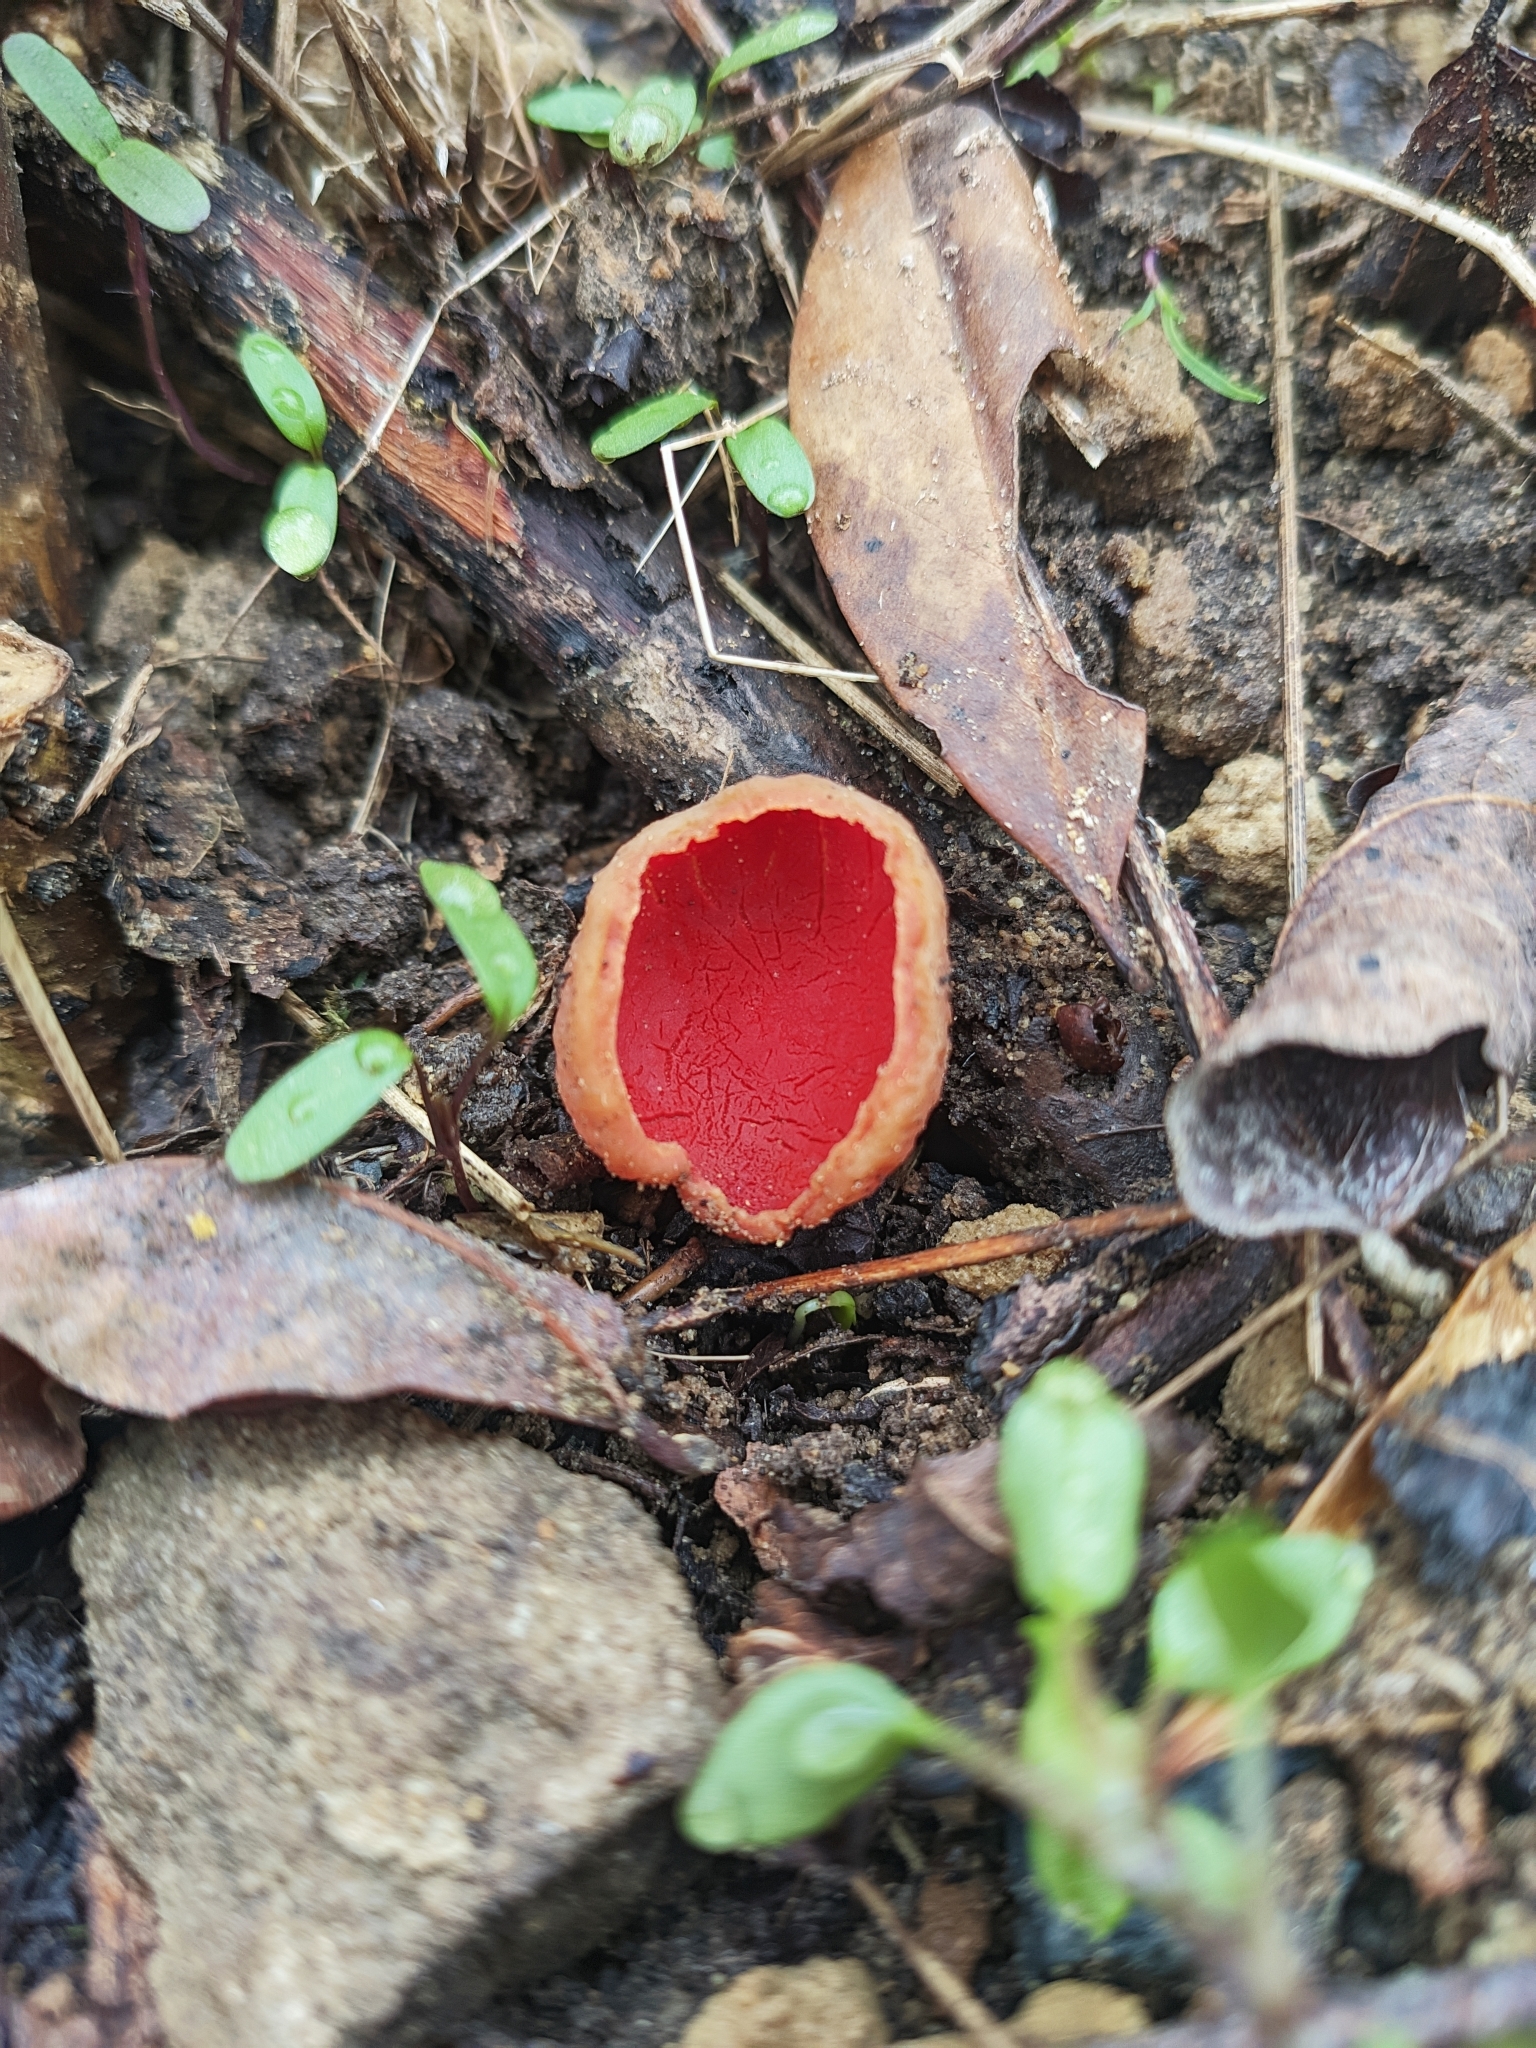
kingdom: Fungi
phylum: Ascomycota
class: Pezizomycetes
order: Pezizales
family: Sarcoscyphaceae
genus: Sarcoscypha
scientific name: Sarcoscypha
